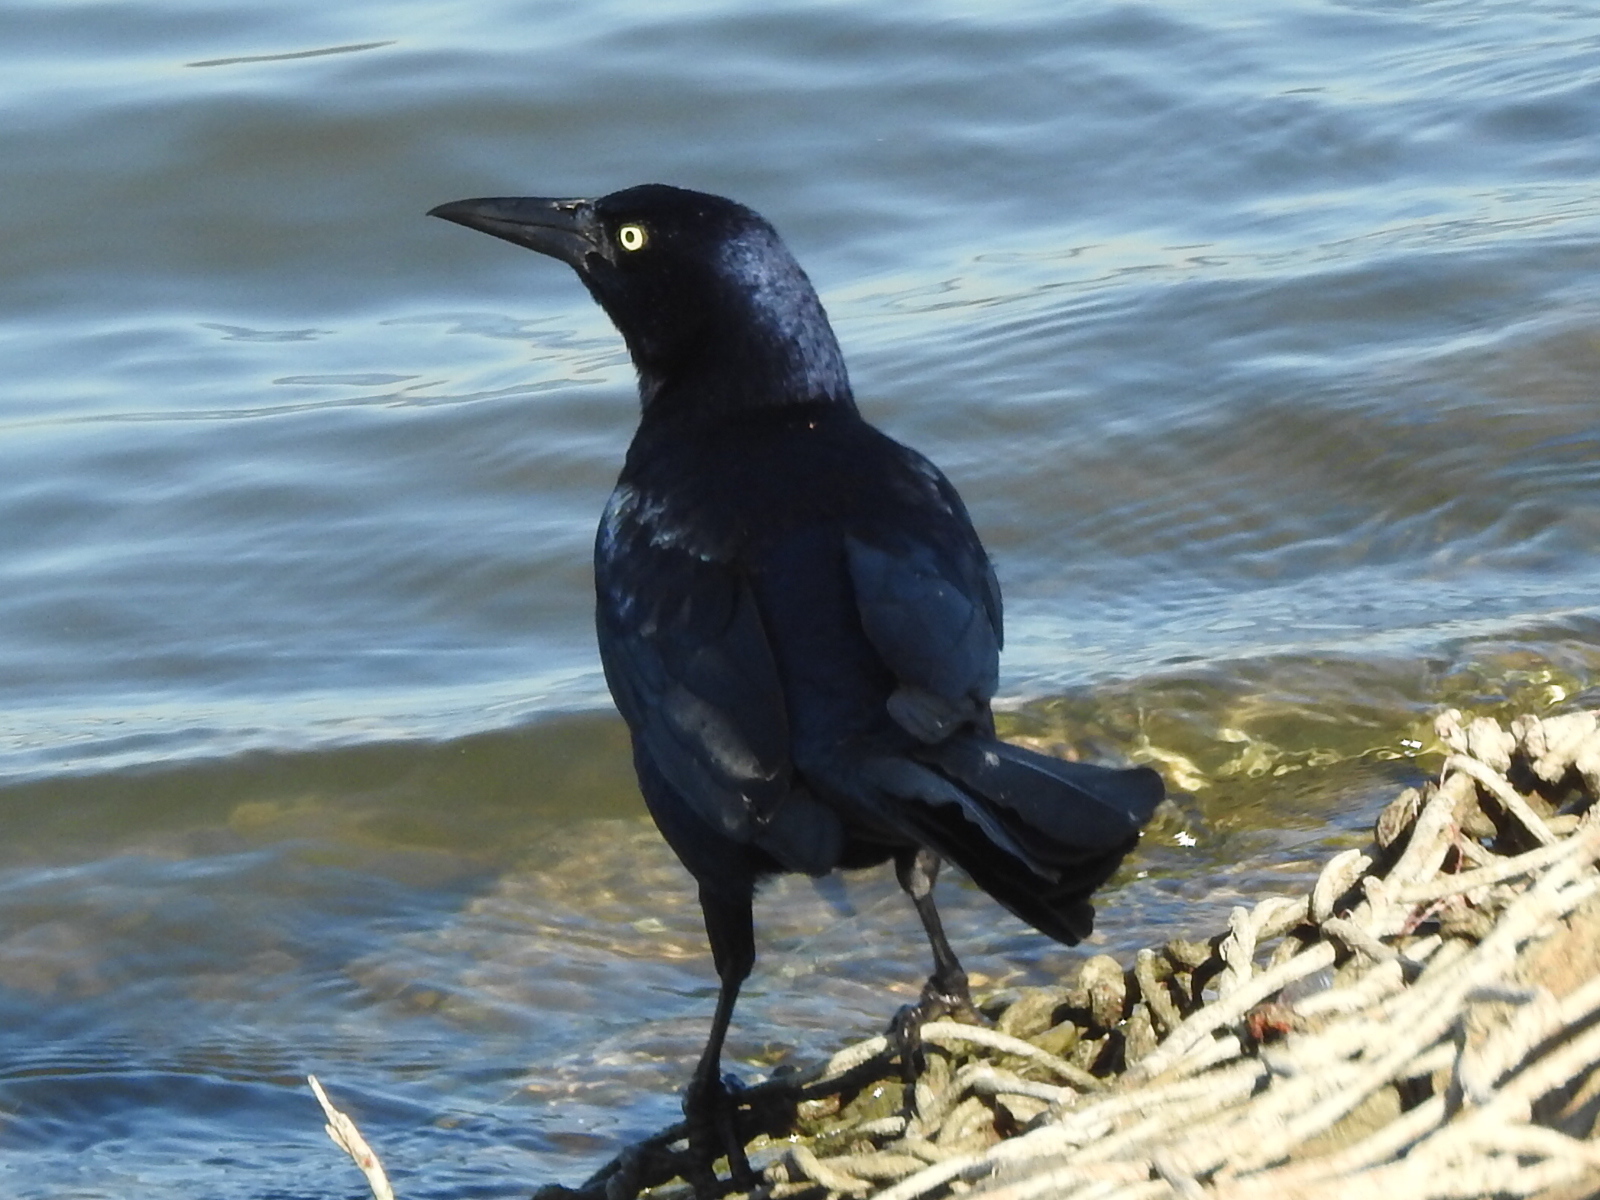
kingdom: Animalia
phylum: Chordata
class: Aves
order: Passeriformes
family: Icteridae
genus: Quiscalus
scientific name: Quiscalus mexicanus
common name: Great-tailed grackle
